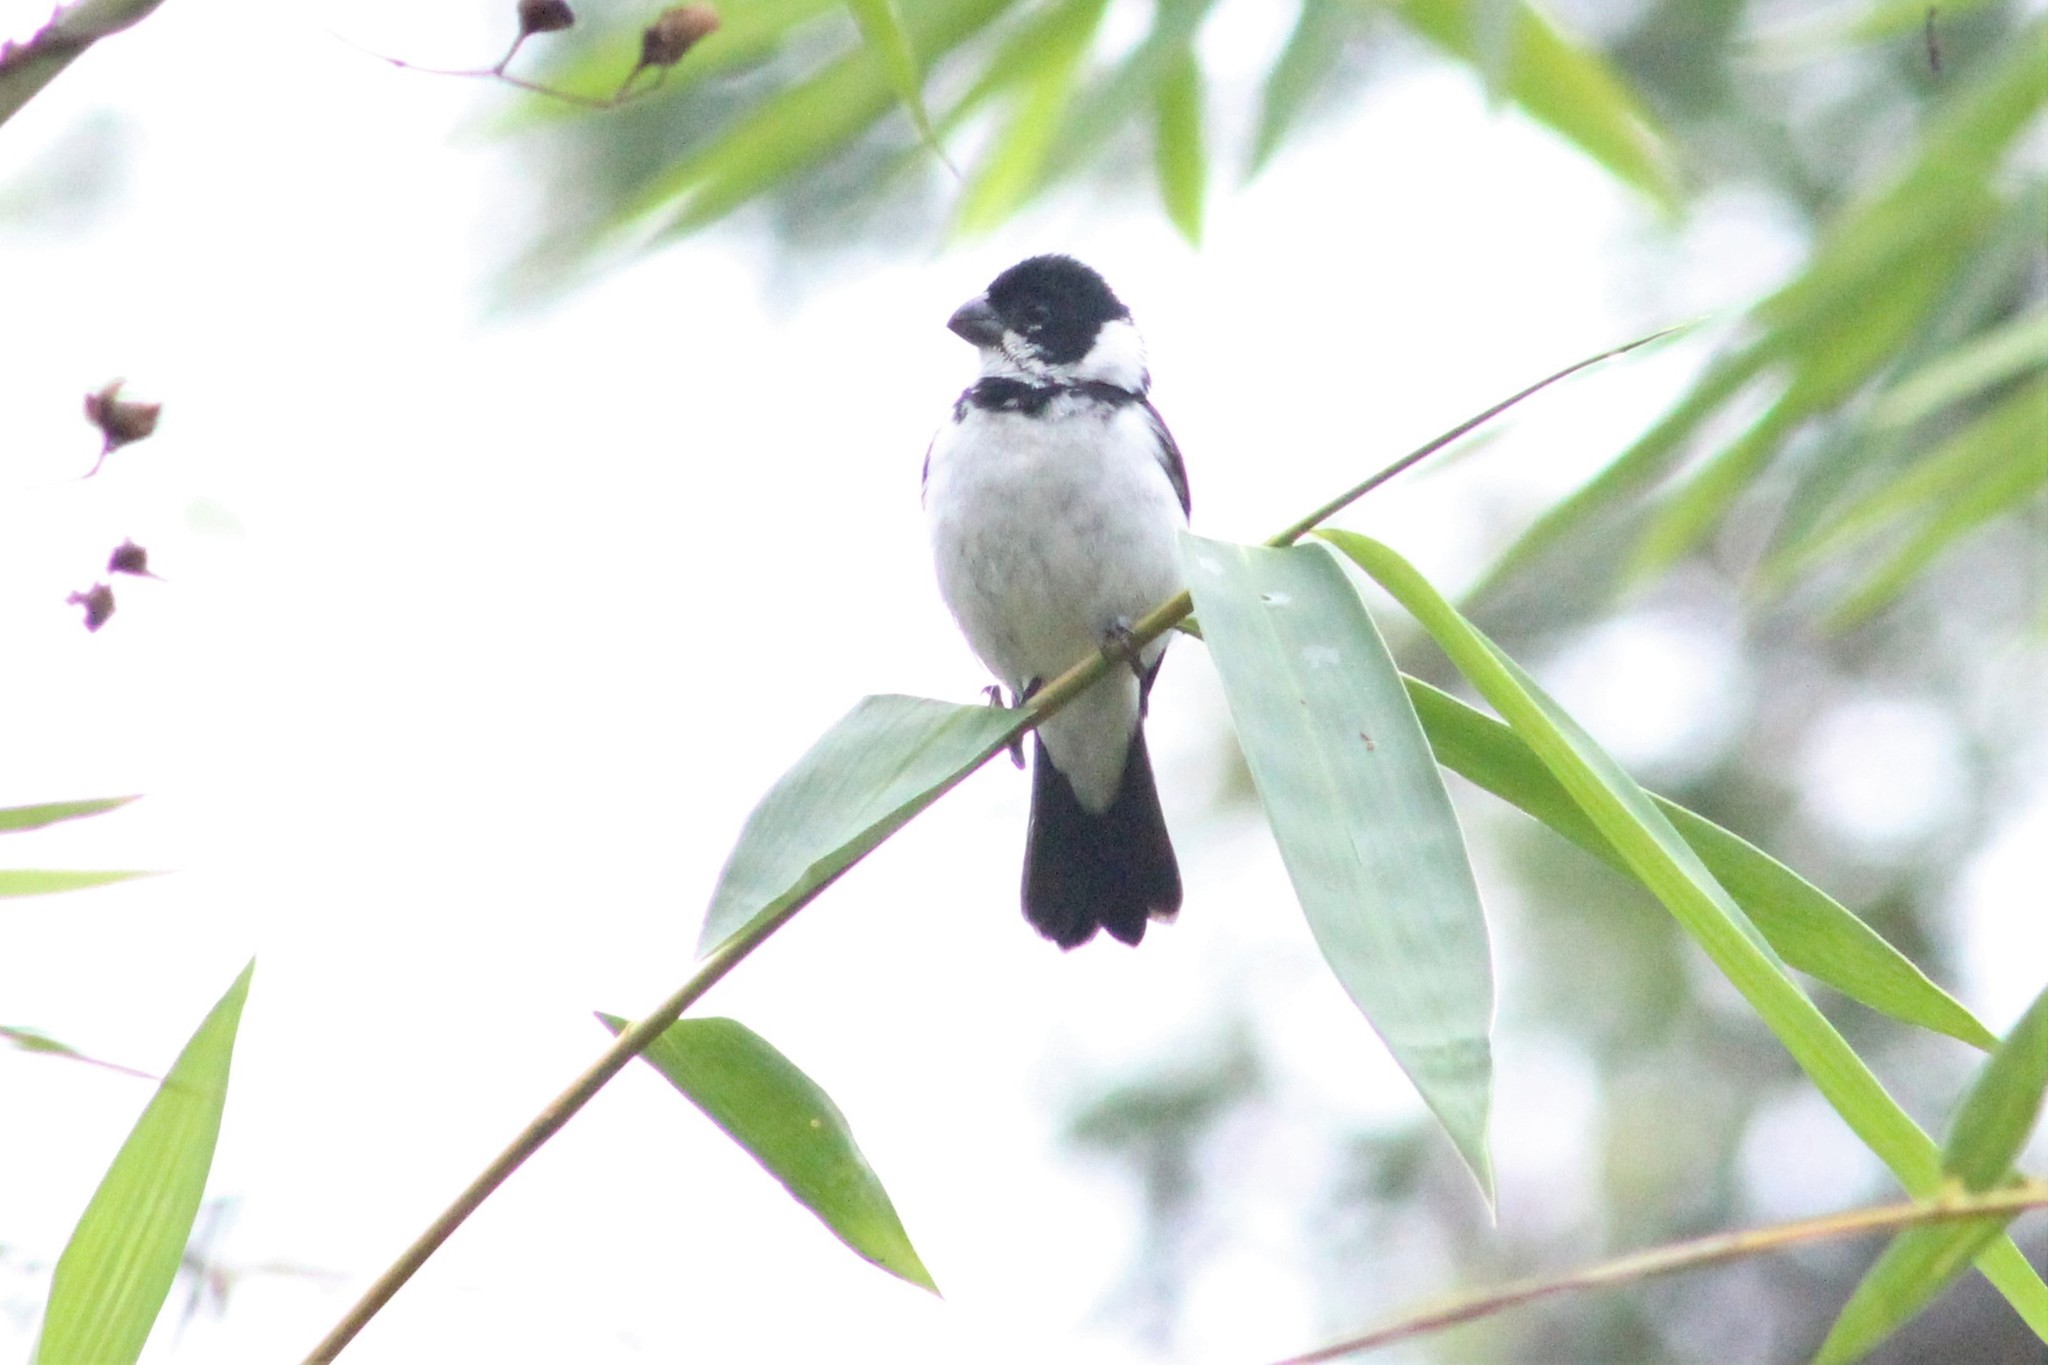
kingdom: Animalia
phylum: Chordata
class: Aves
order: Passeriformes
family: Thraupidae
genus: Sporophila
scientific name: Sporophila corvina
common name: Variable seedeater
